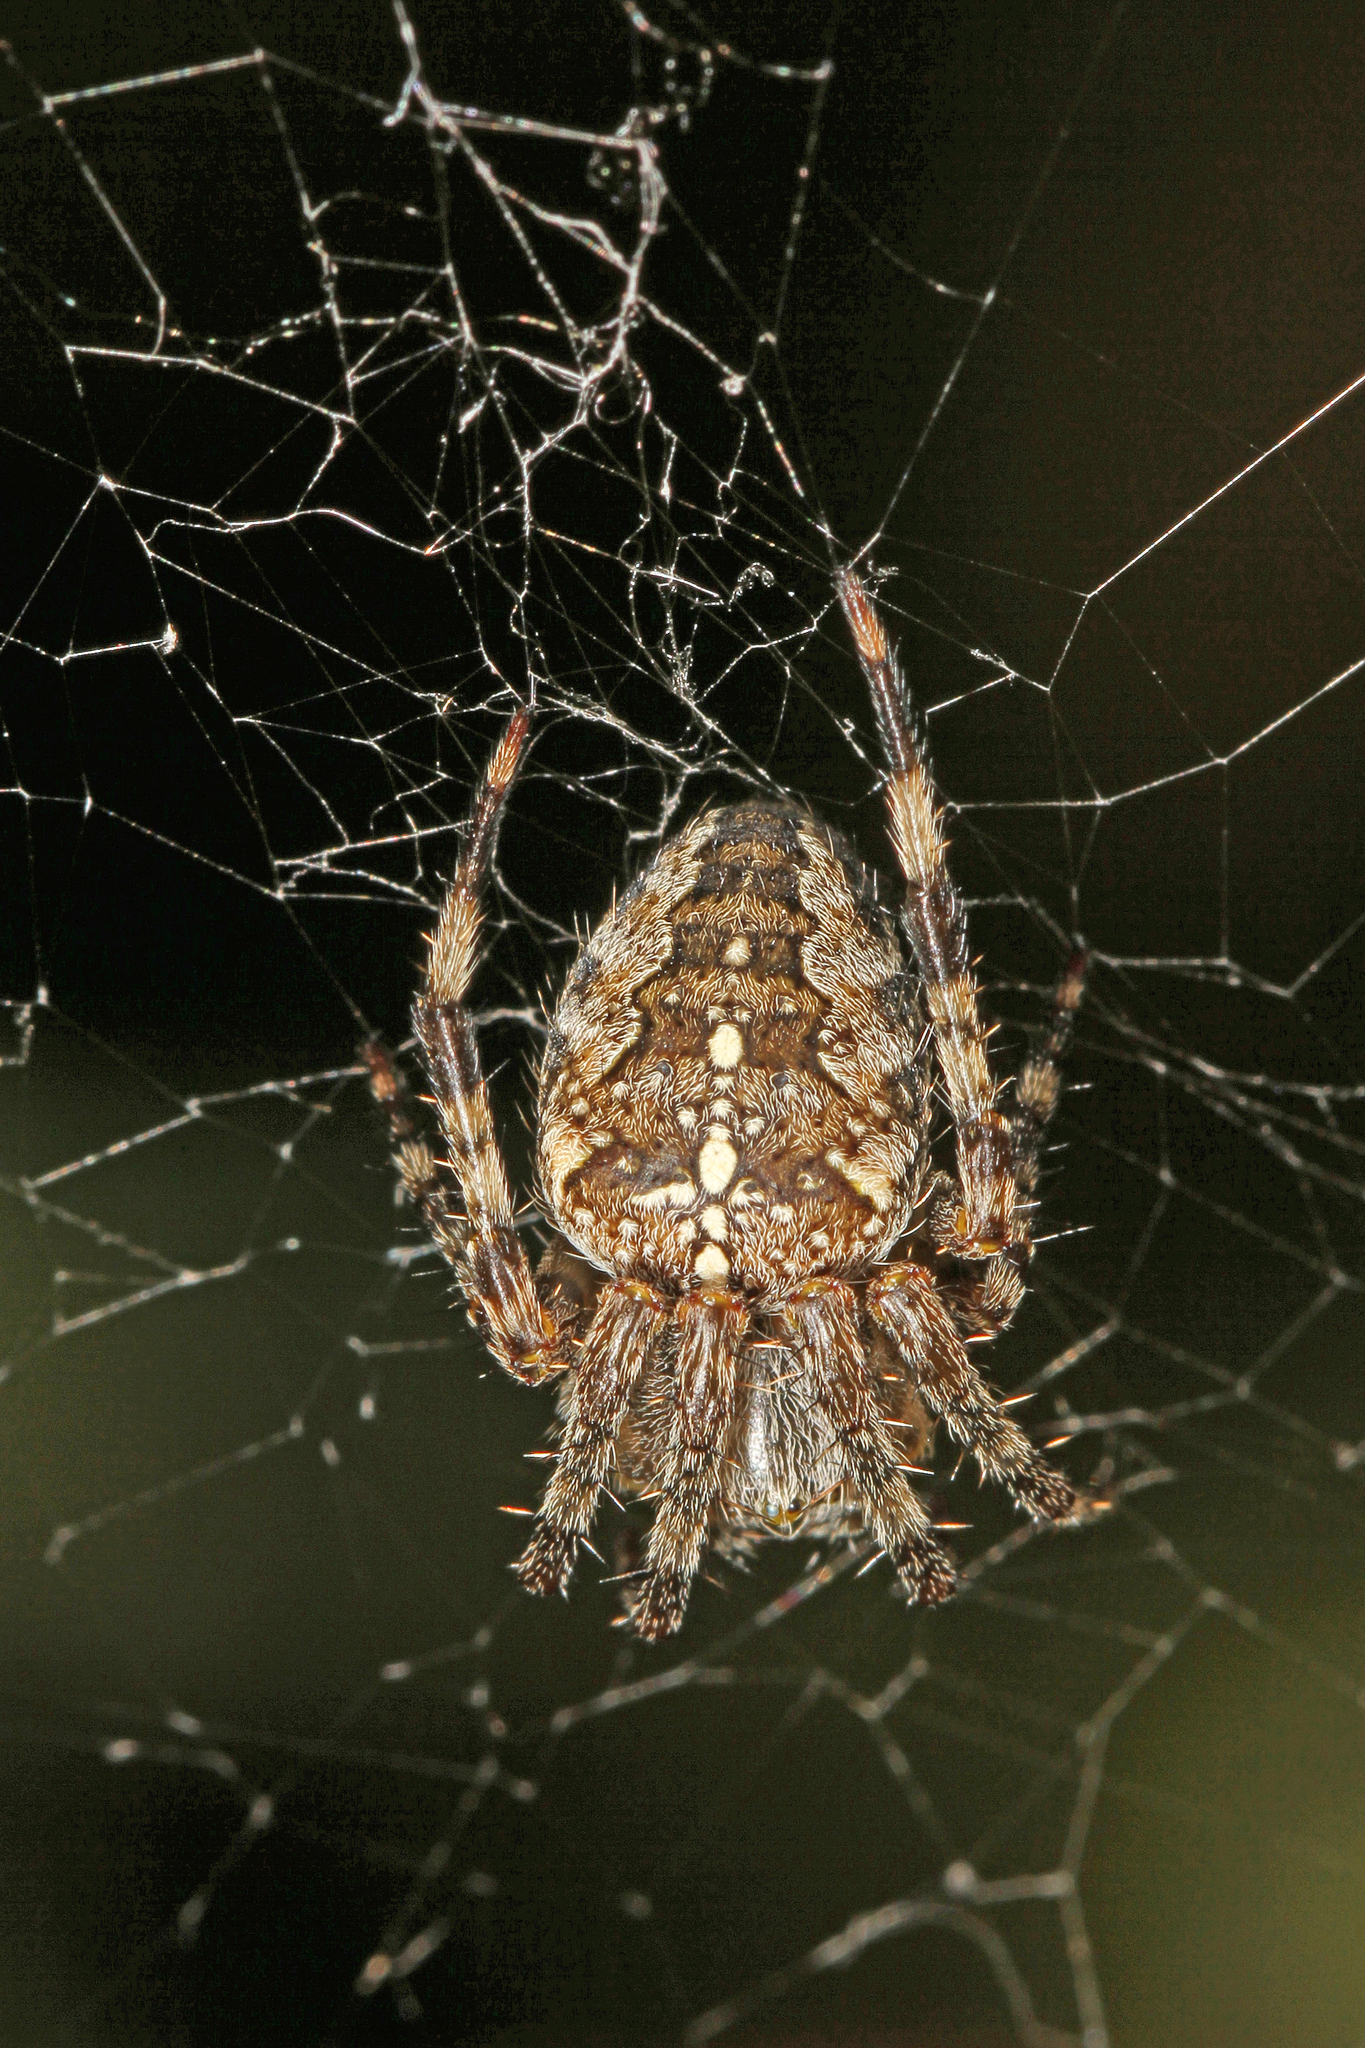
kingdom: Animalia
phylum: Arthropoda
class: Arachnida
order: Araneae
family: Araneidae
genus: Araneus
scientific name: Araneus diadematus
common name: Cross orbweaver
